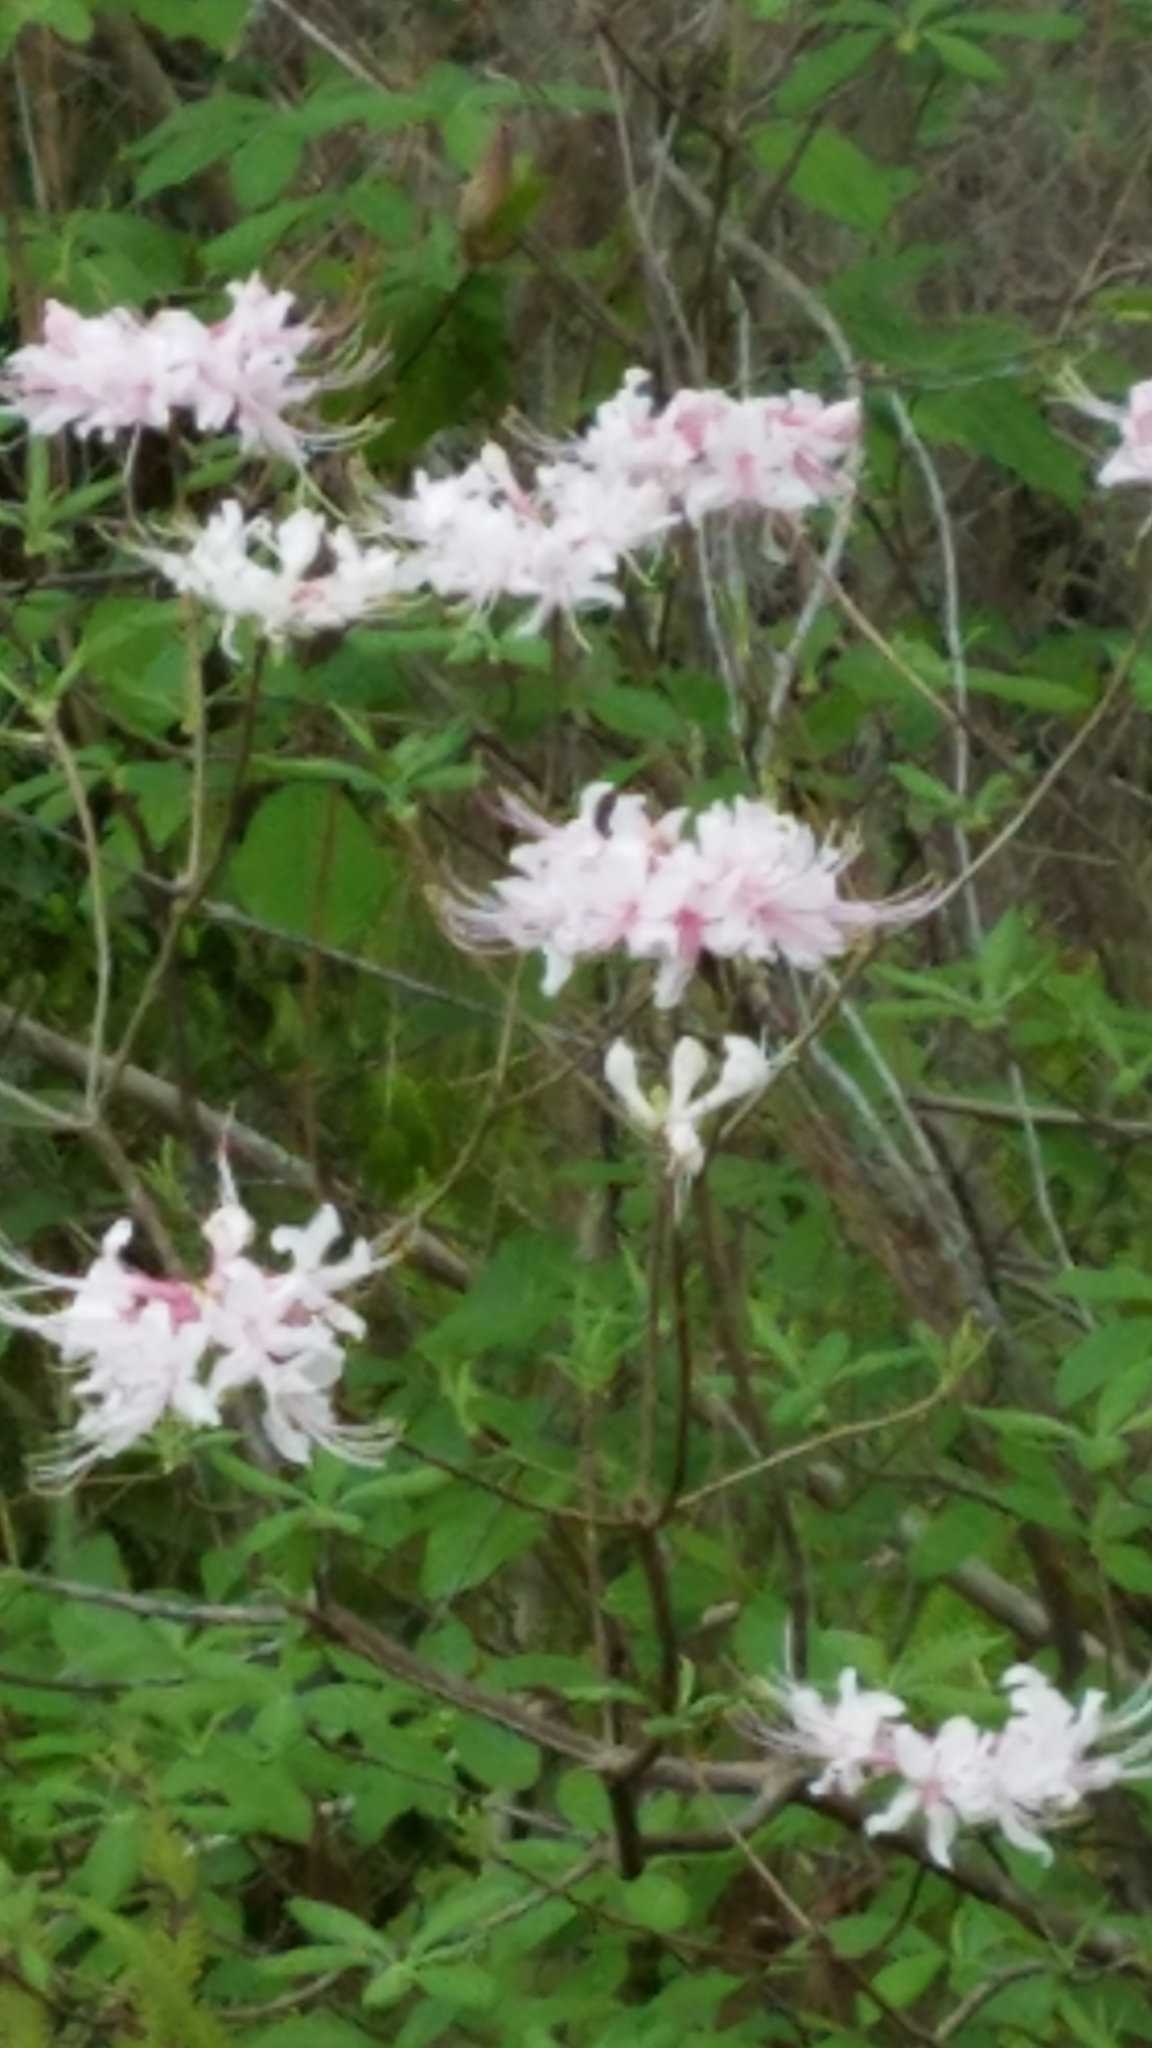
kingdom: Plantae
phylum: Tracheophyta
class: Magnoliopsida
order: Ericales
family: Ericaceae
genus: Rhododendron
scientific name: Rhododendron canescens
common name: Mountain azalea
